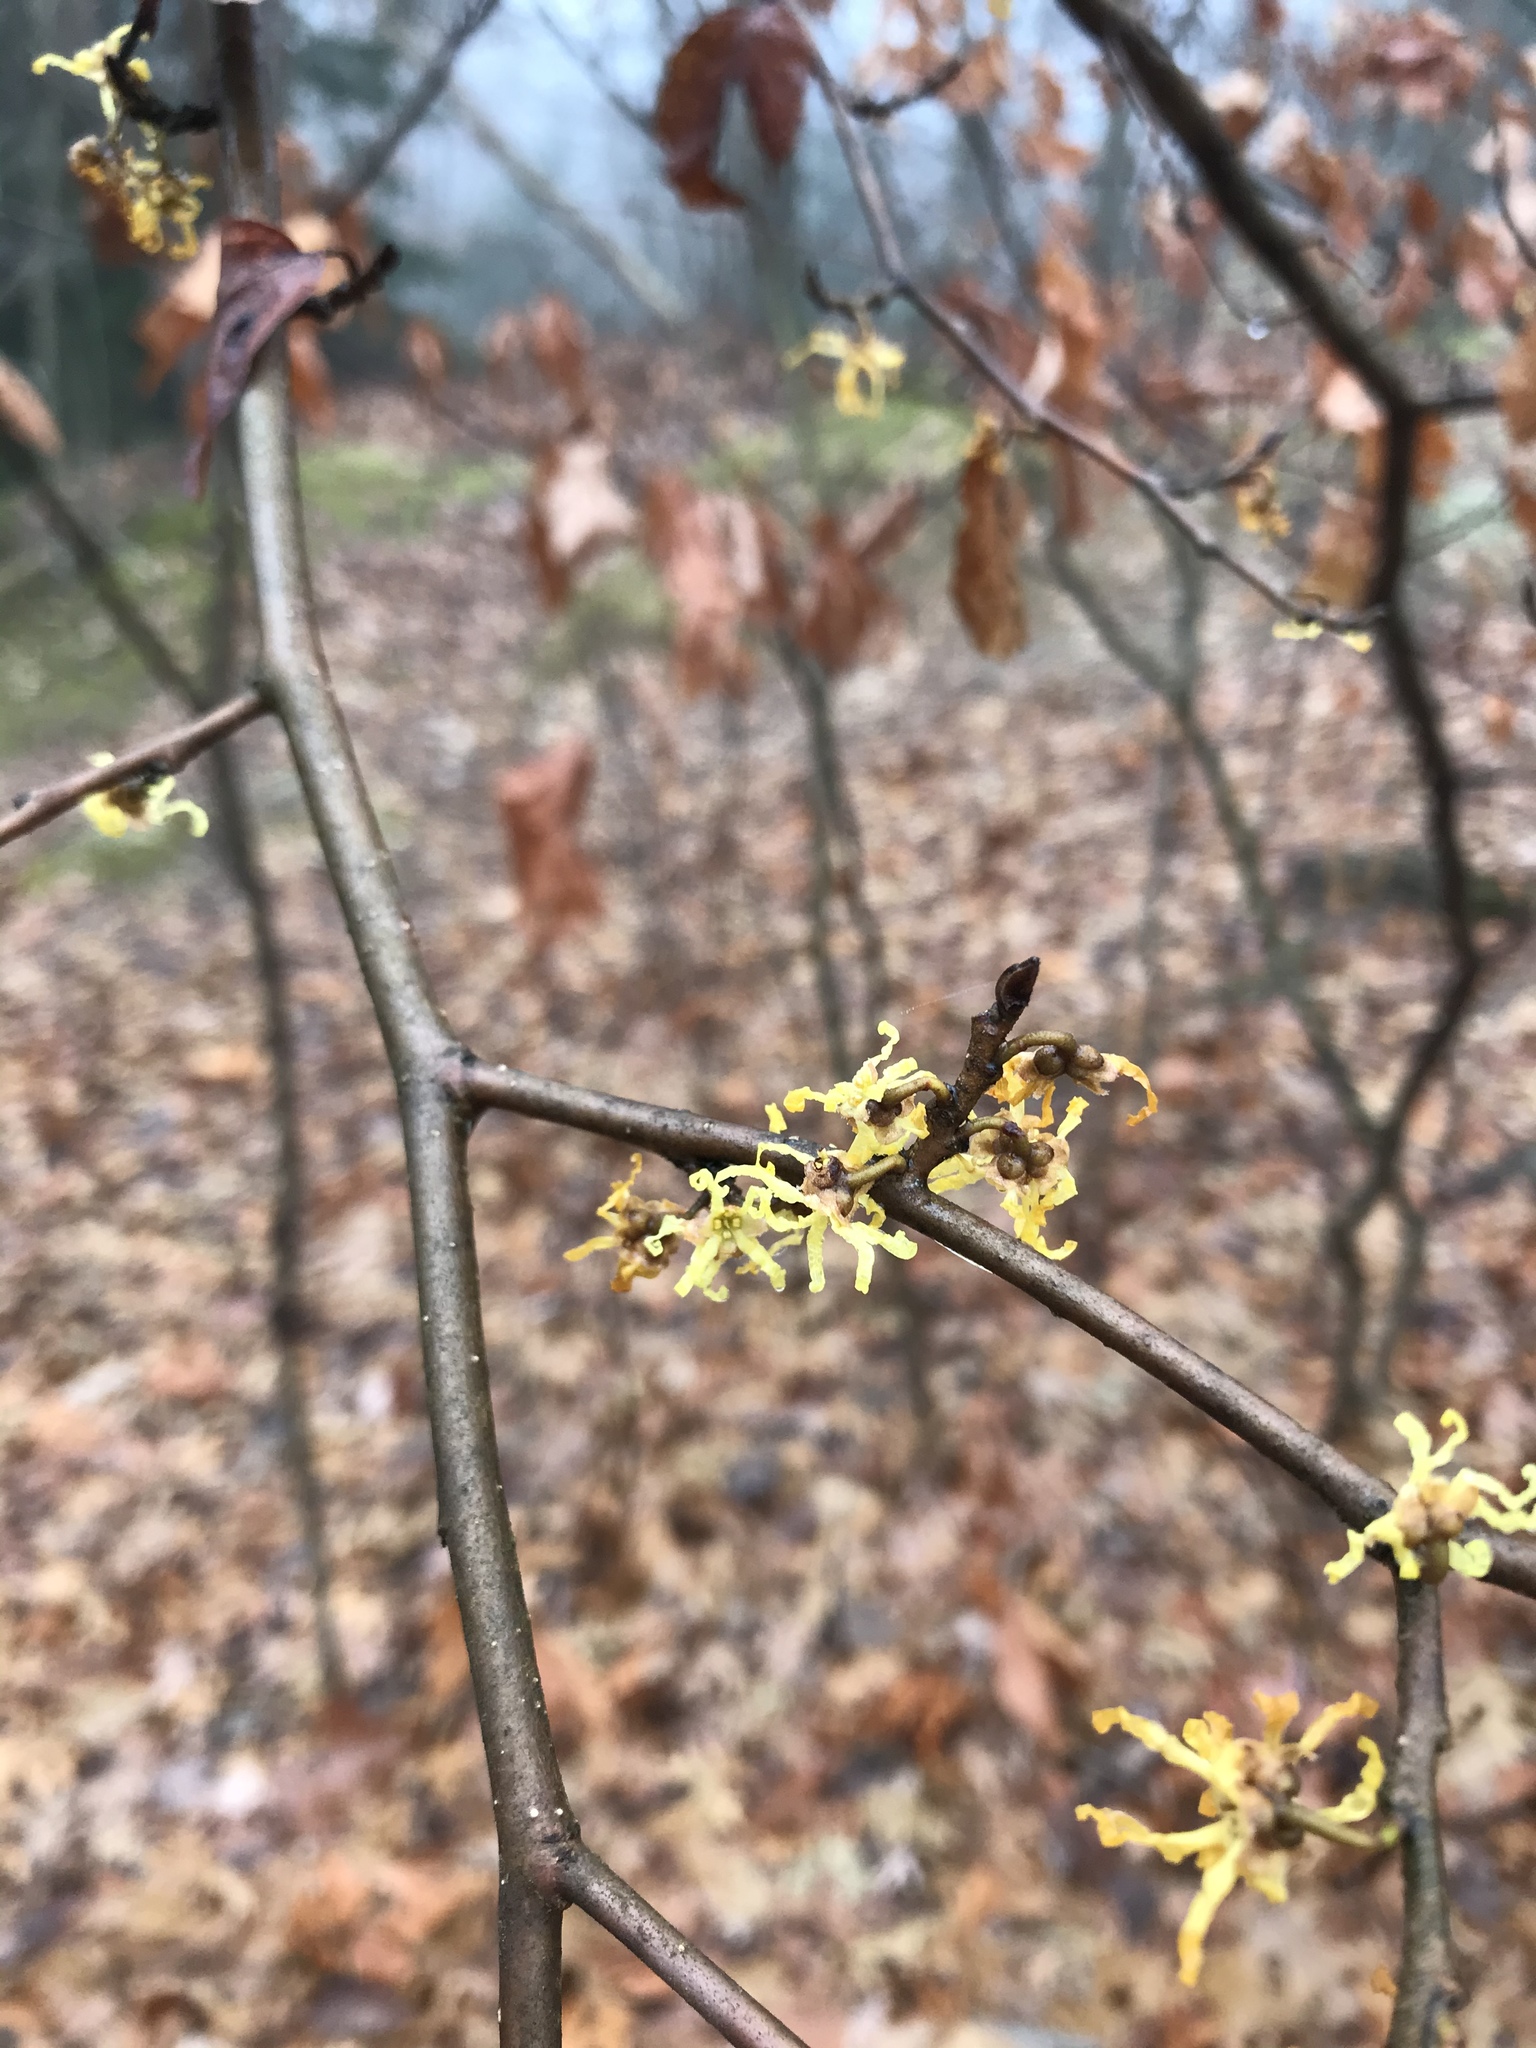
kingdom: Plantae
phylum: Tracheophyta
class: Magnoliopsida
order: Saxifragales
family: Hamamelidaceae
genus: Hamamelis
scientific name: Hamamelis virginiana
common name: Witch-hazel
